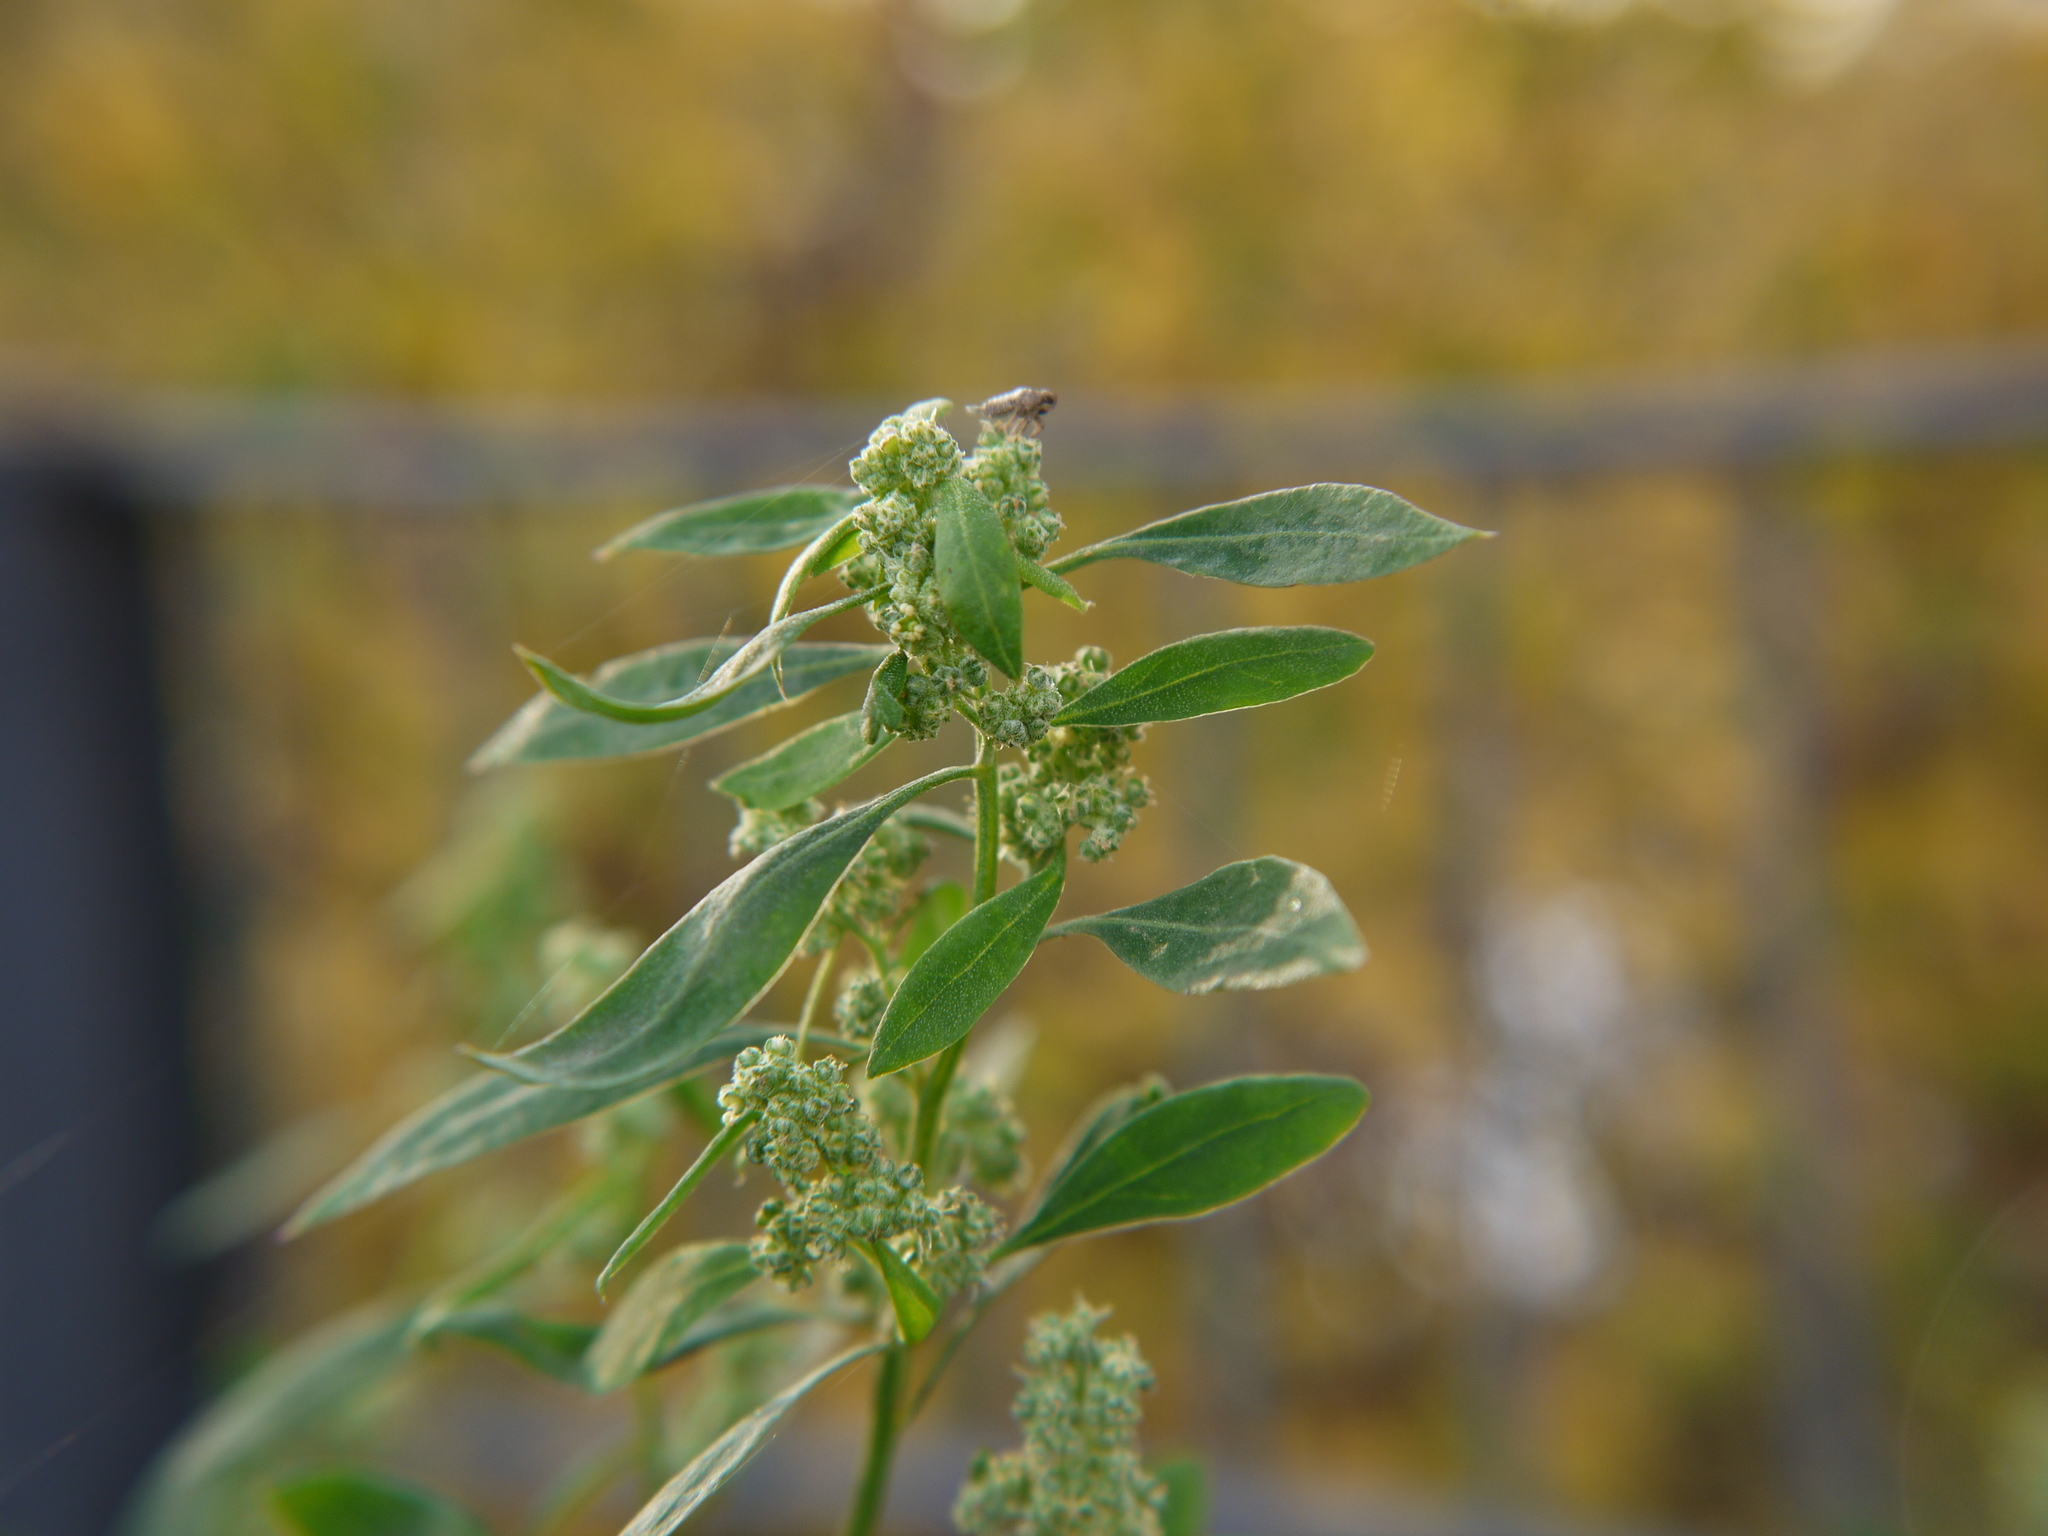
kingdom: Plantae
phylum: Tracheophyta
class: Magnoliopsida
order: Caryophyllales
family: Amaranthaceae
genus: Chenopodium
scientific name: Chenopodium album
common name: Fat-hen
